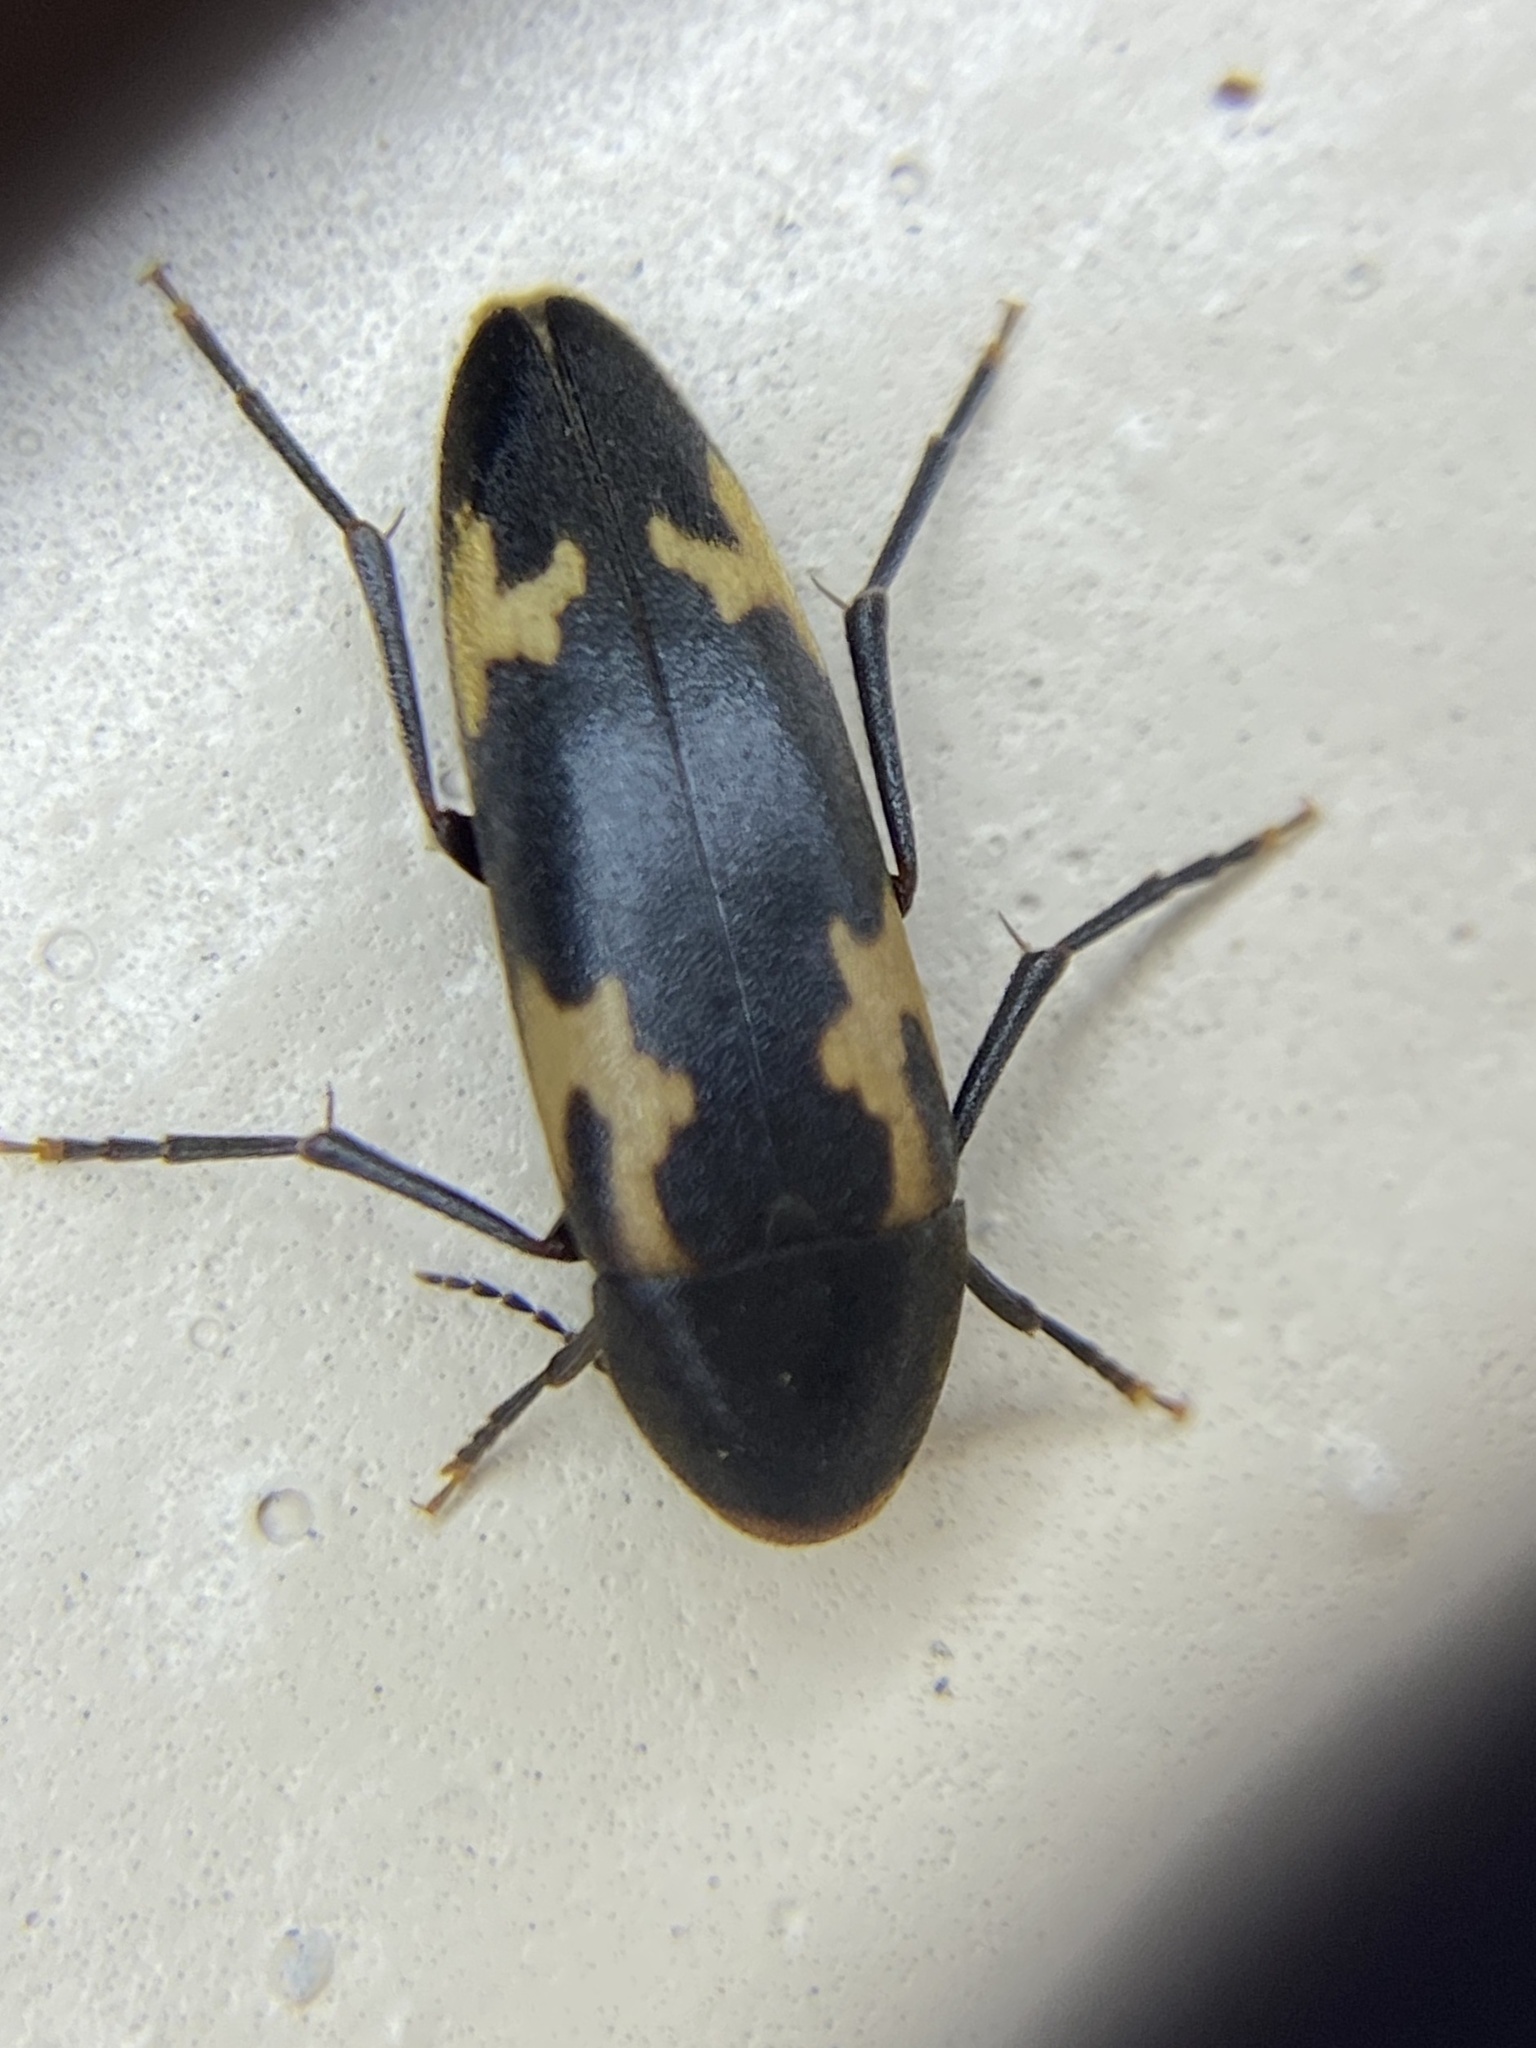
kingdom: Animalia
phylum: Arthropoda
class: Insecta
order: Coleoptera
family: Melandryidae
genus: Dircaea
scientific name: Dircaea liturata
